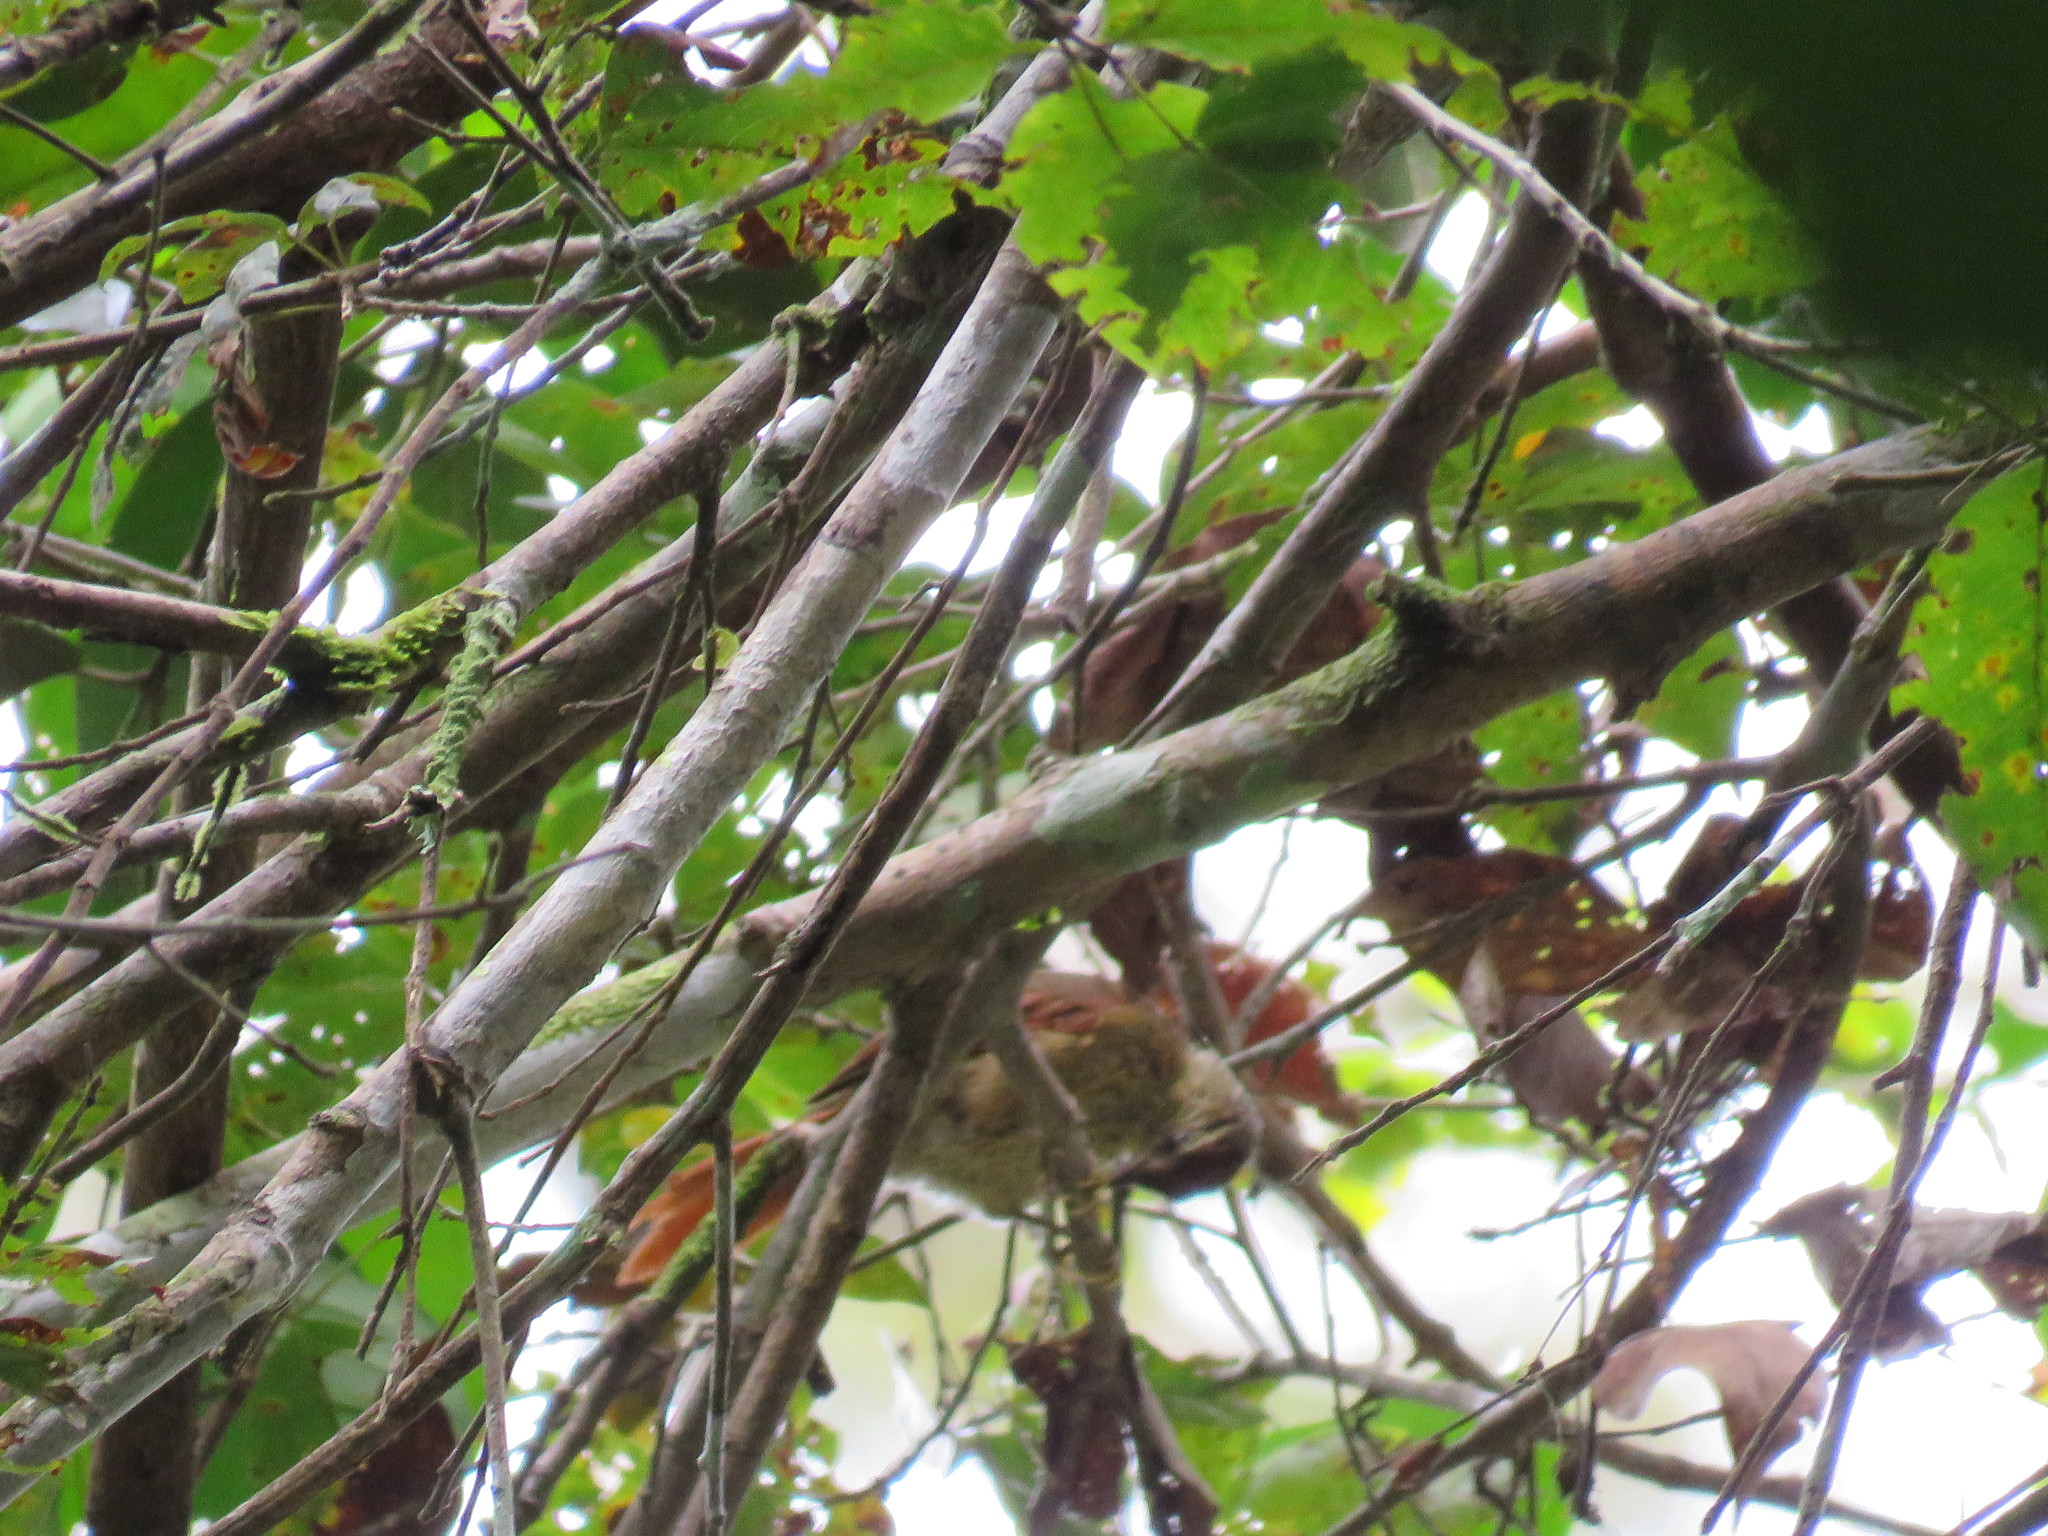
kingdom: Animalia
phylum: Chordata
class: Aves
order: Passeriformes
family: Furnariidae
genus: Cranioleuca
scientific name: Cranioleuca gutturata
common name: Speckled spinetail
